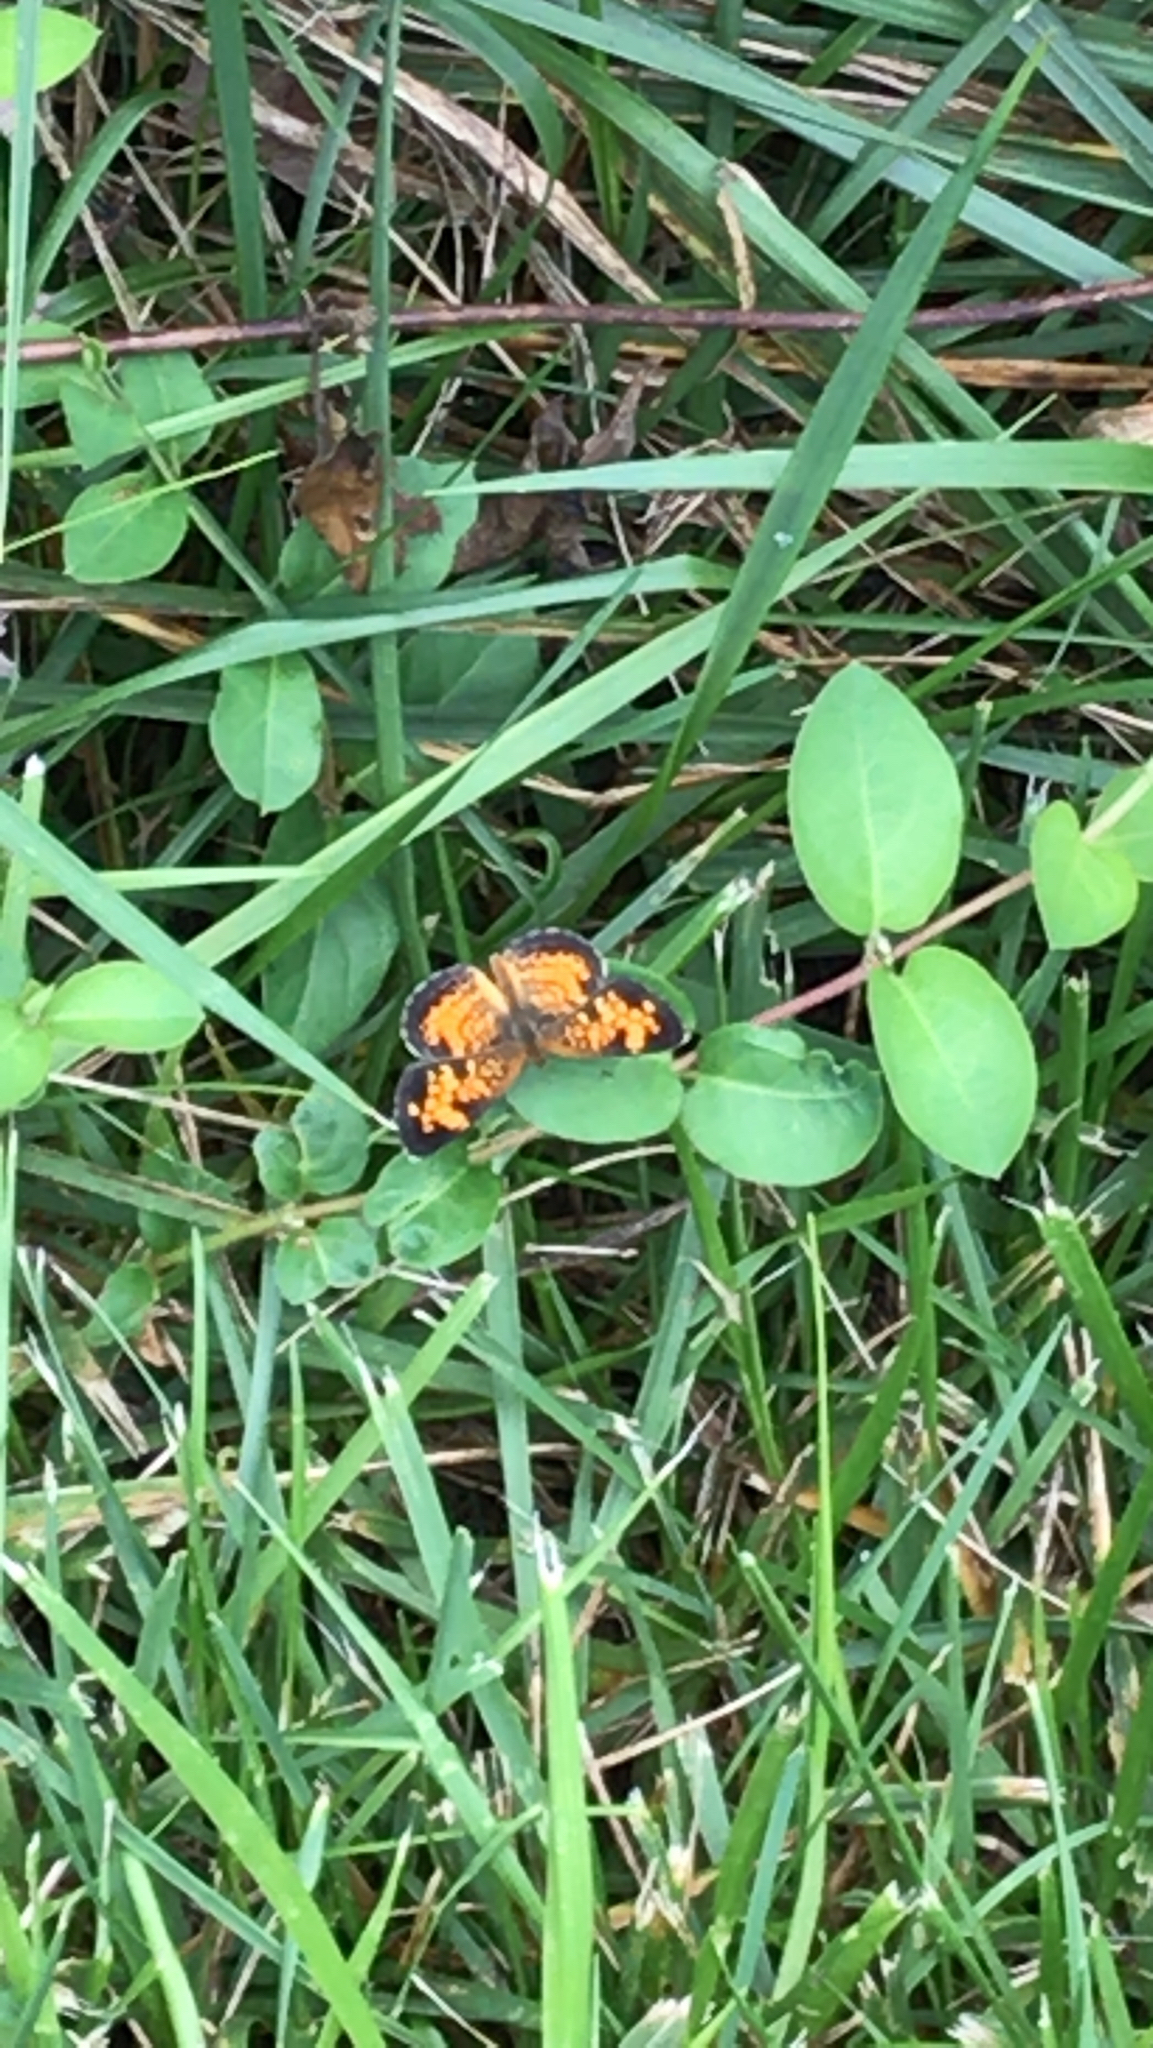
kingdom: Animalia
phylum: Arthropoda
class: Insecta
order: Lepidoptera
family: Nymphalidae
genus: Phyciodes
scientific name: Phyciodes tharos
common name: Pearl crescent
